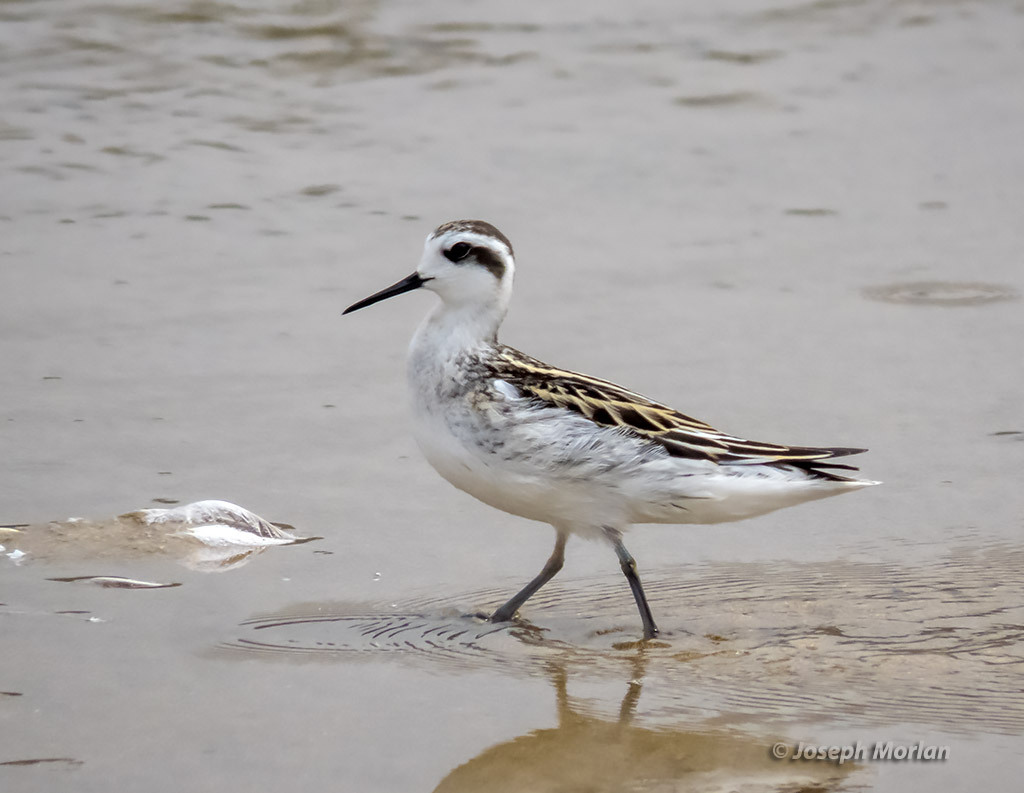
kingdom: Animalia
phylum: Chordata
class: Aves
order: Charadriiformes
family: Scolopacidae
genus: Phalaropus
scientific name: Phalaropus lobatus
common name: Red-necked phalarope
